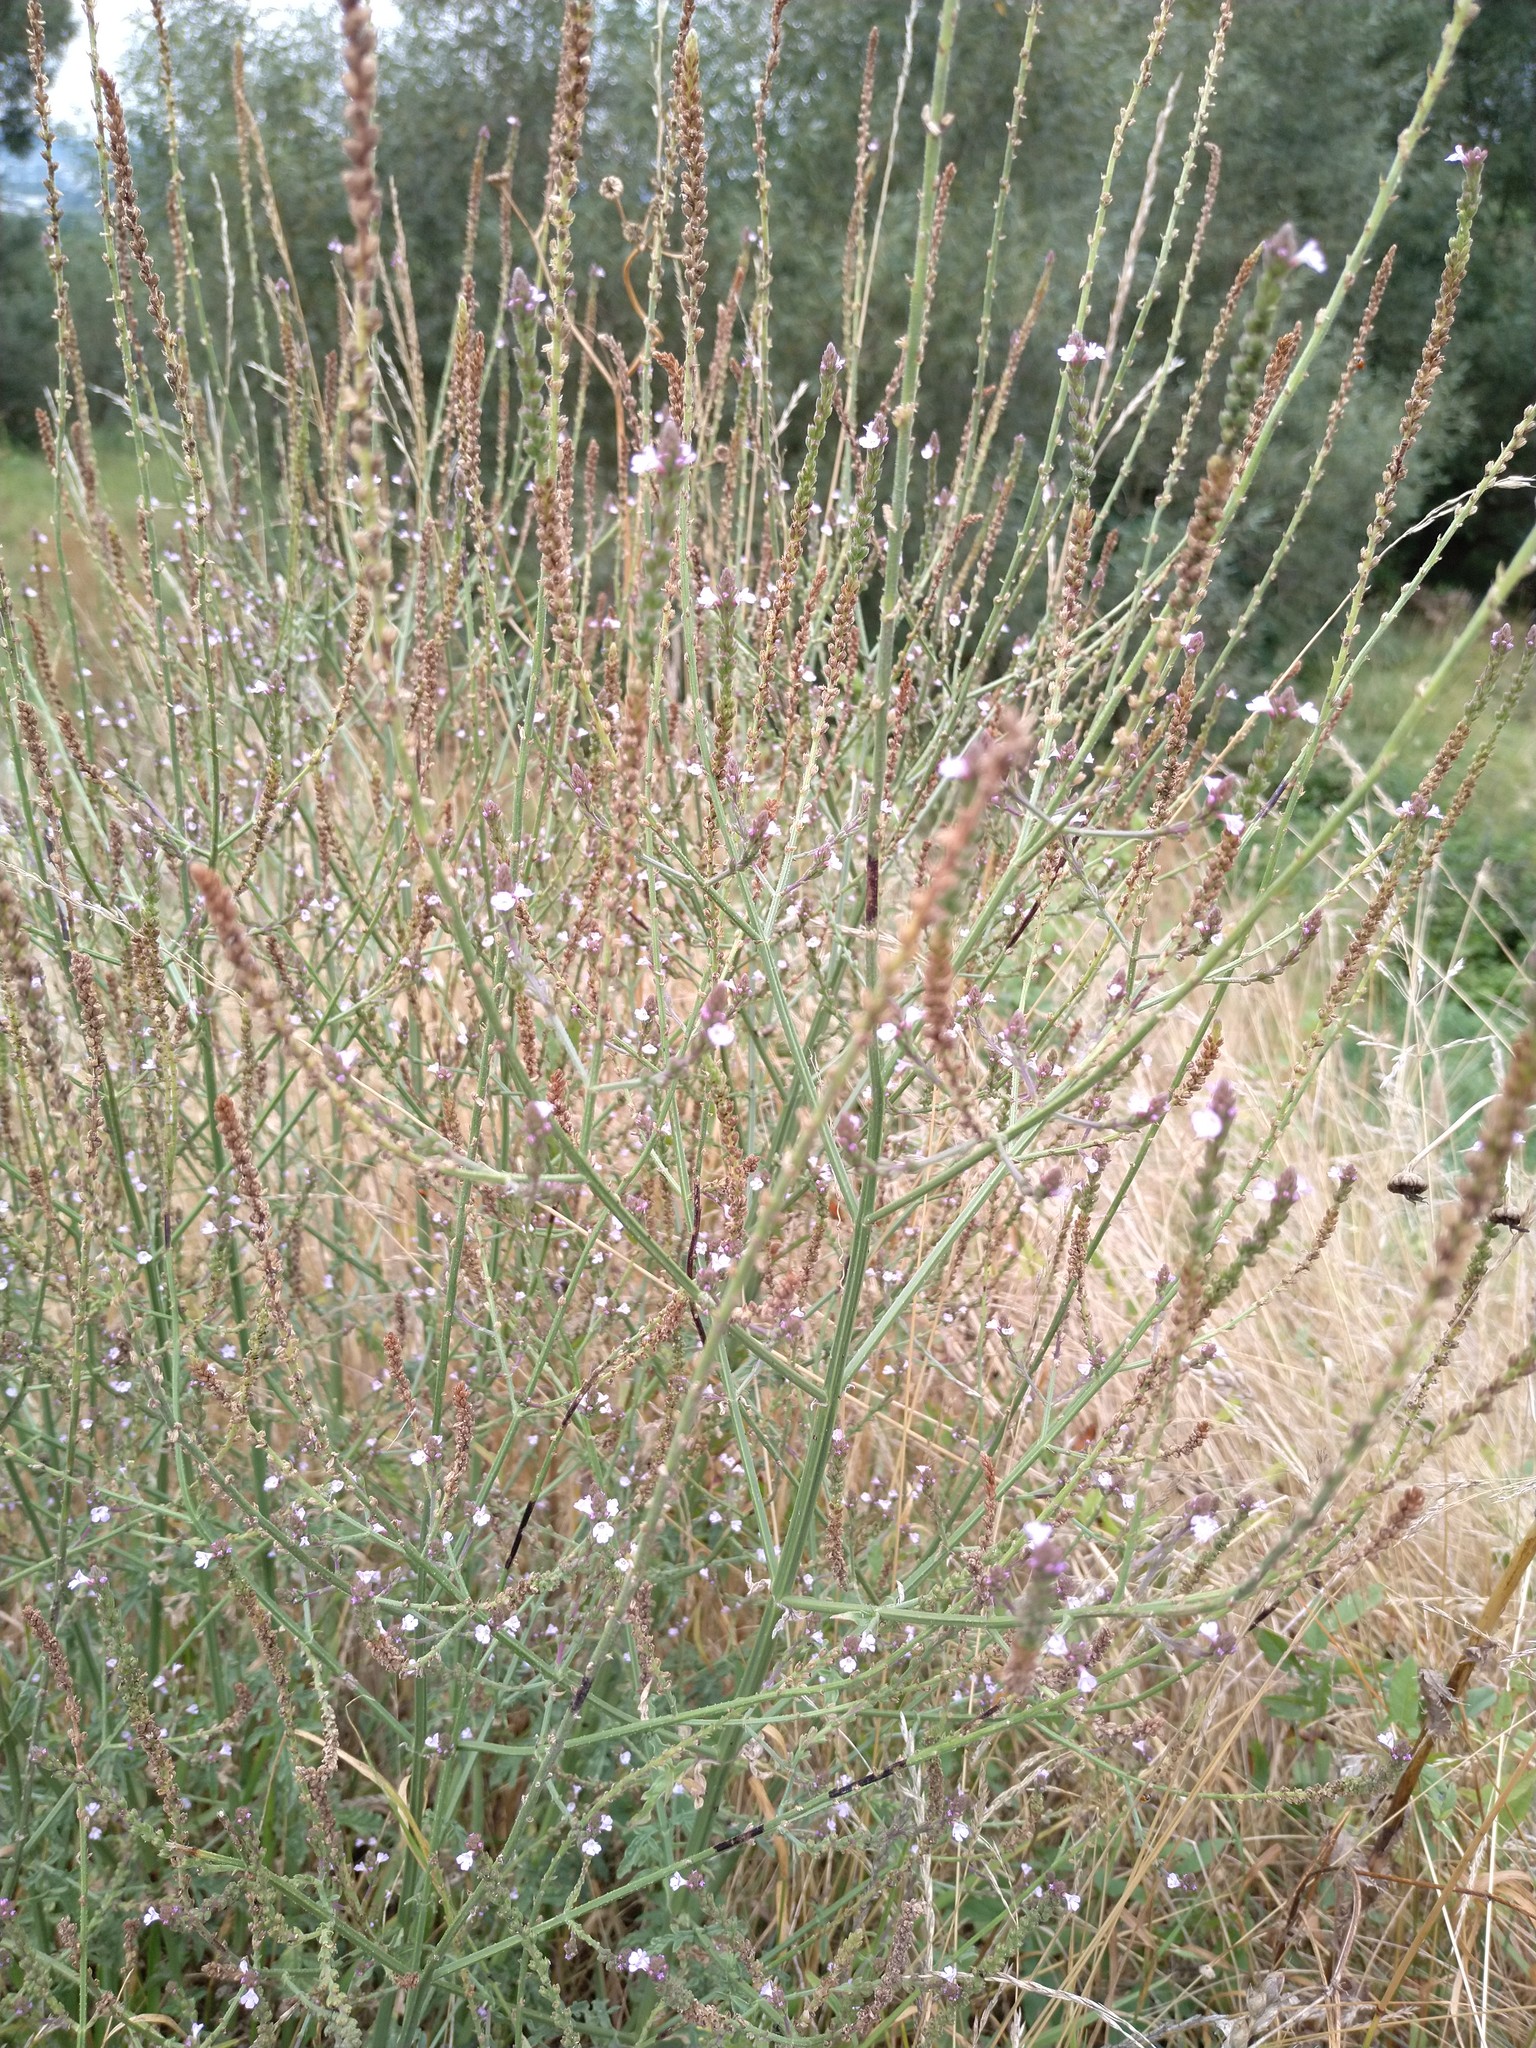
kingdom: Plantae
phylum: Tracheophyta
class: Magnoliopsida
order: Lamiales
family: Verbenaceae
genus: Verbena
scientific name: Verbena officinalis
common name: Vervain
